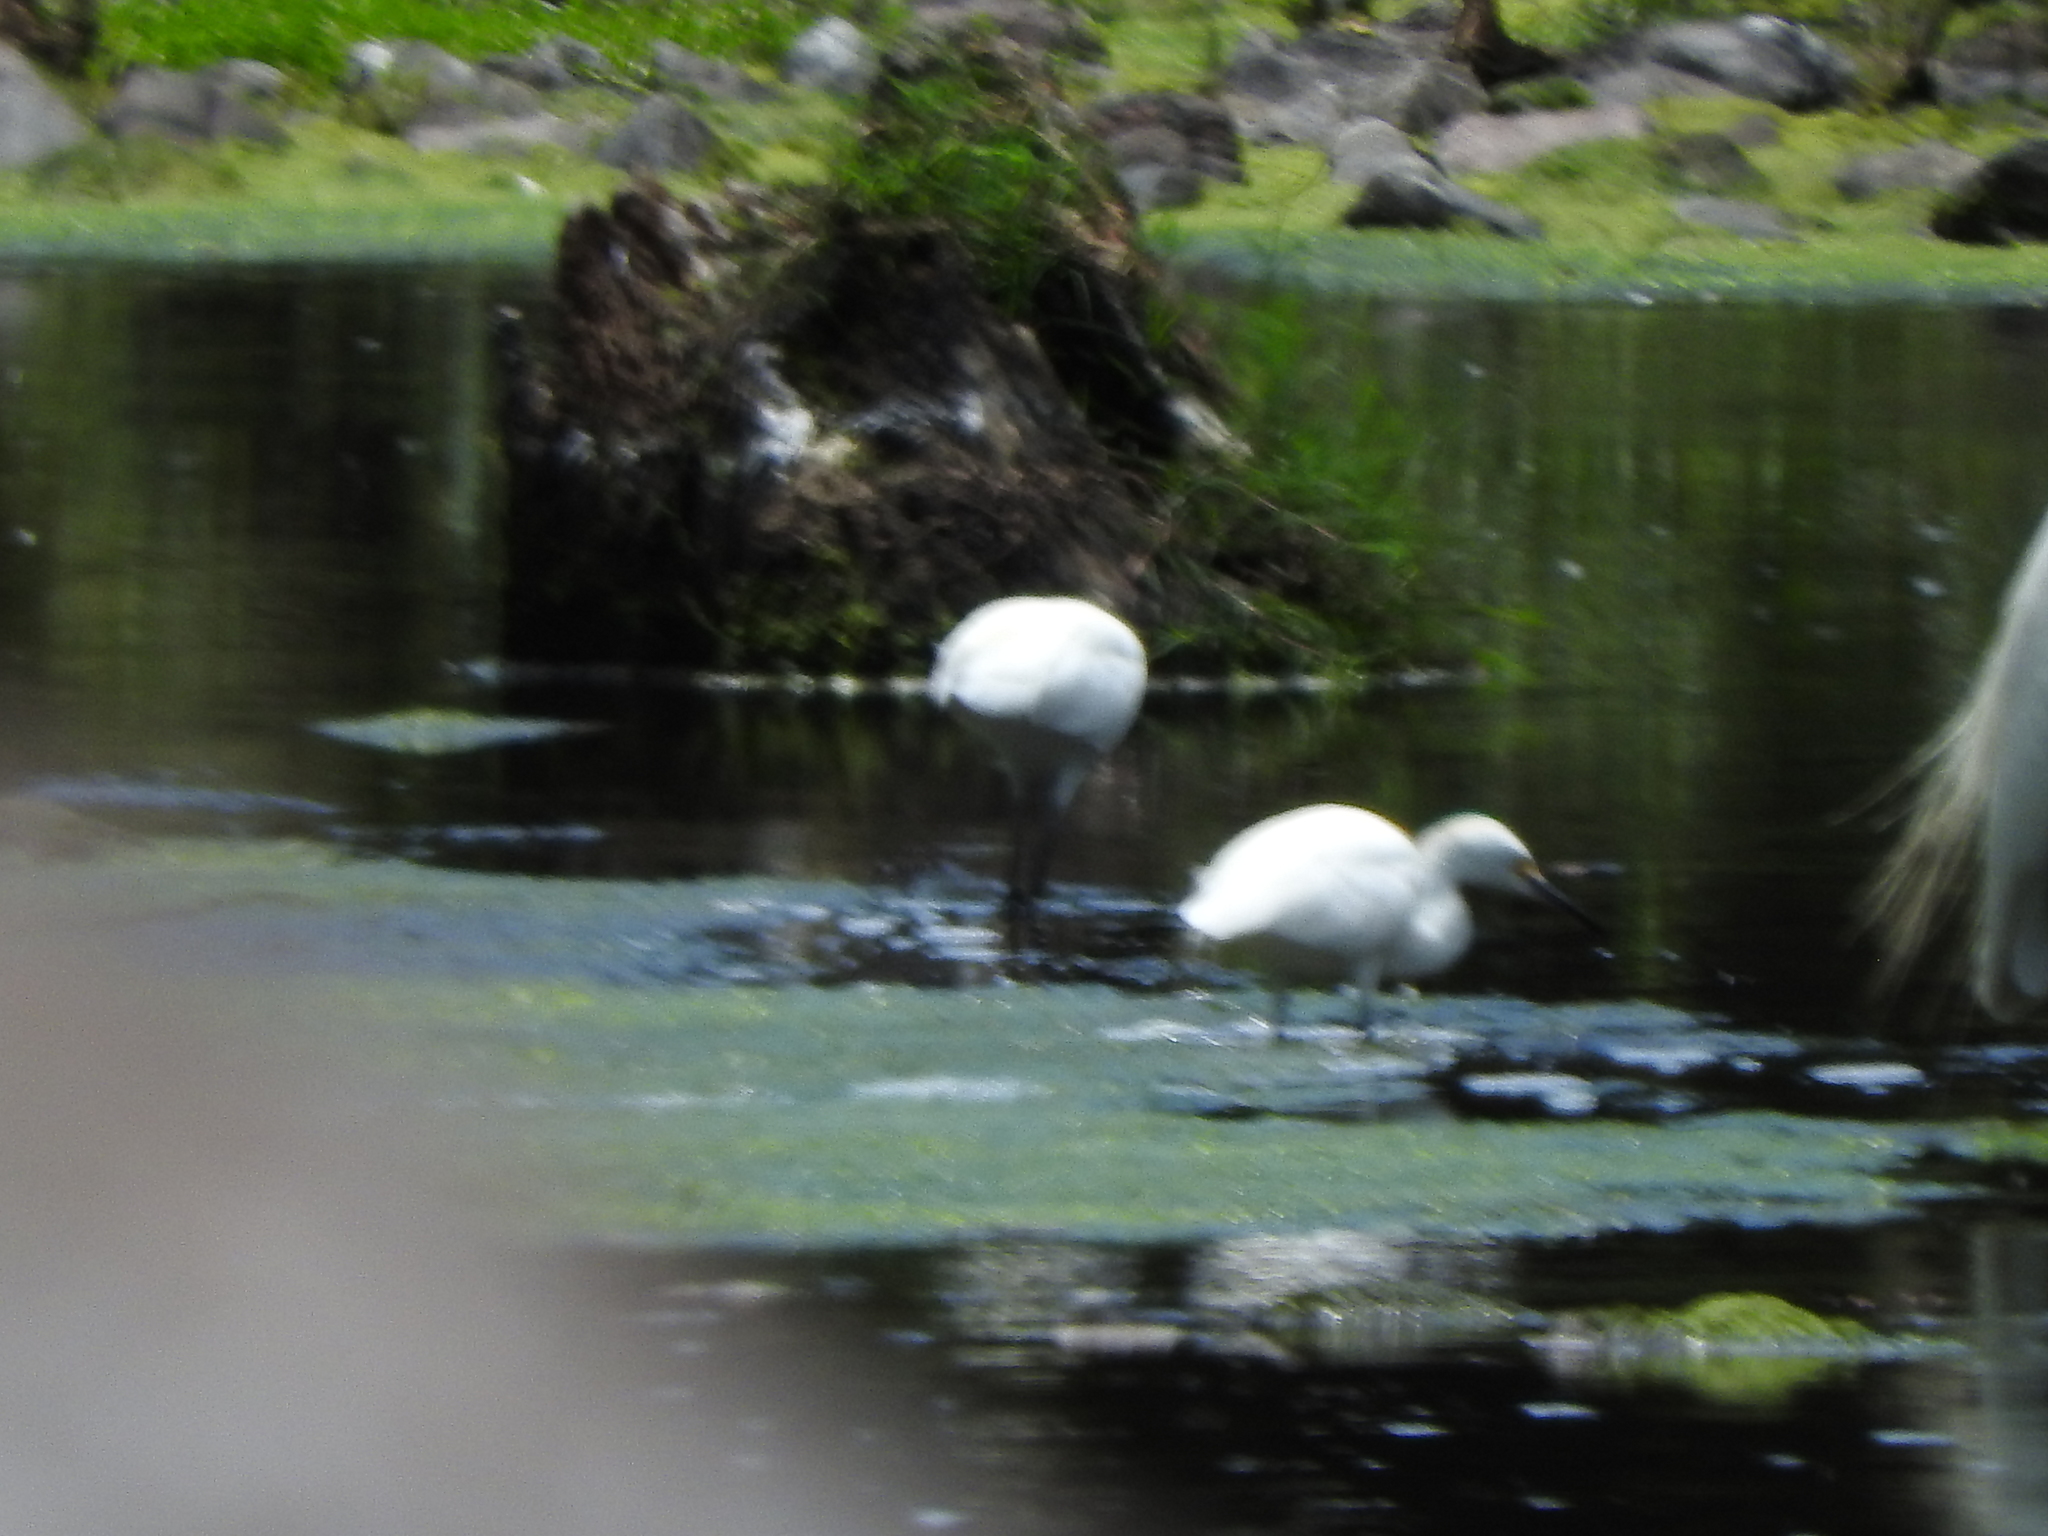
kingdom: Animalia
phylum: Chordata
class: Aves
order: Pelecaniformes
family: Ardeidae
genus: Egretta
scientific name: Egretta thula
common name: Snowy egret
